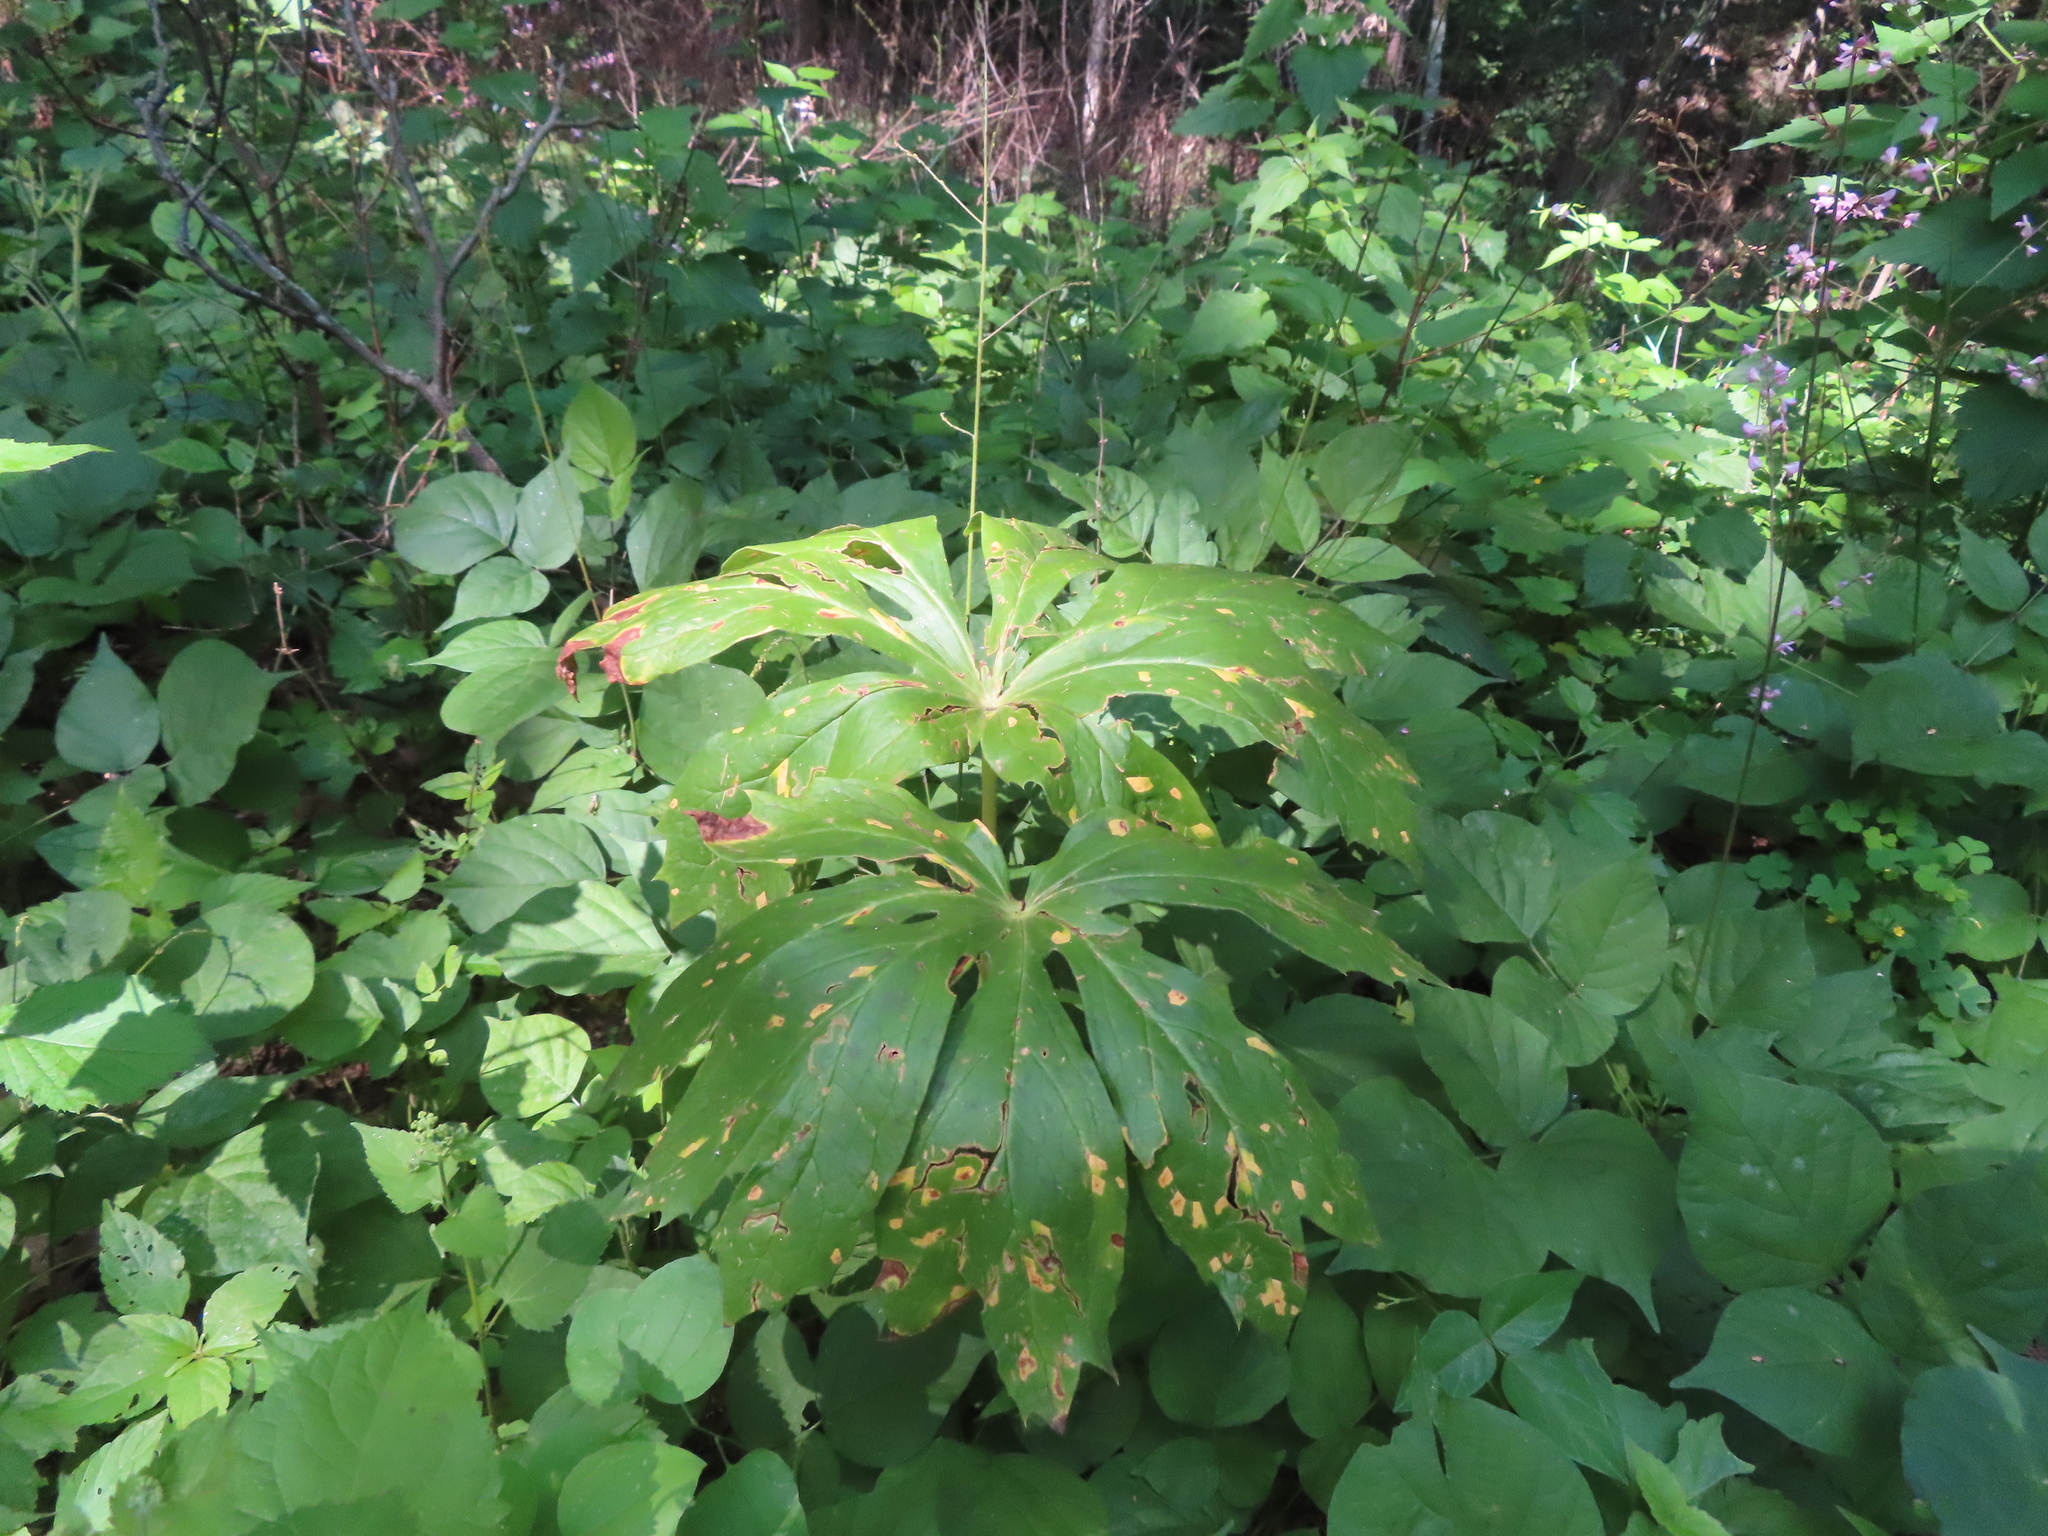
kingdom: Fungi
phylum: Basidiomycota
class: Pucciniomycetes
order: Pucciniales
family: Pucciniaceae
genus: Puccinia
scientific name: Puccinia podophylli
